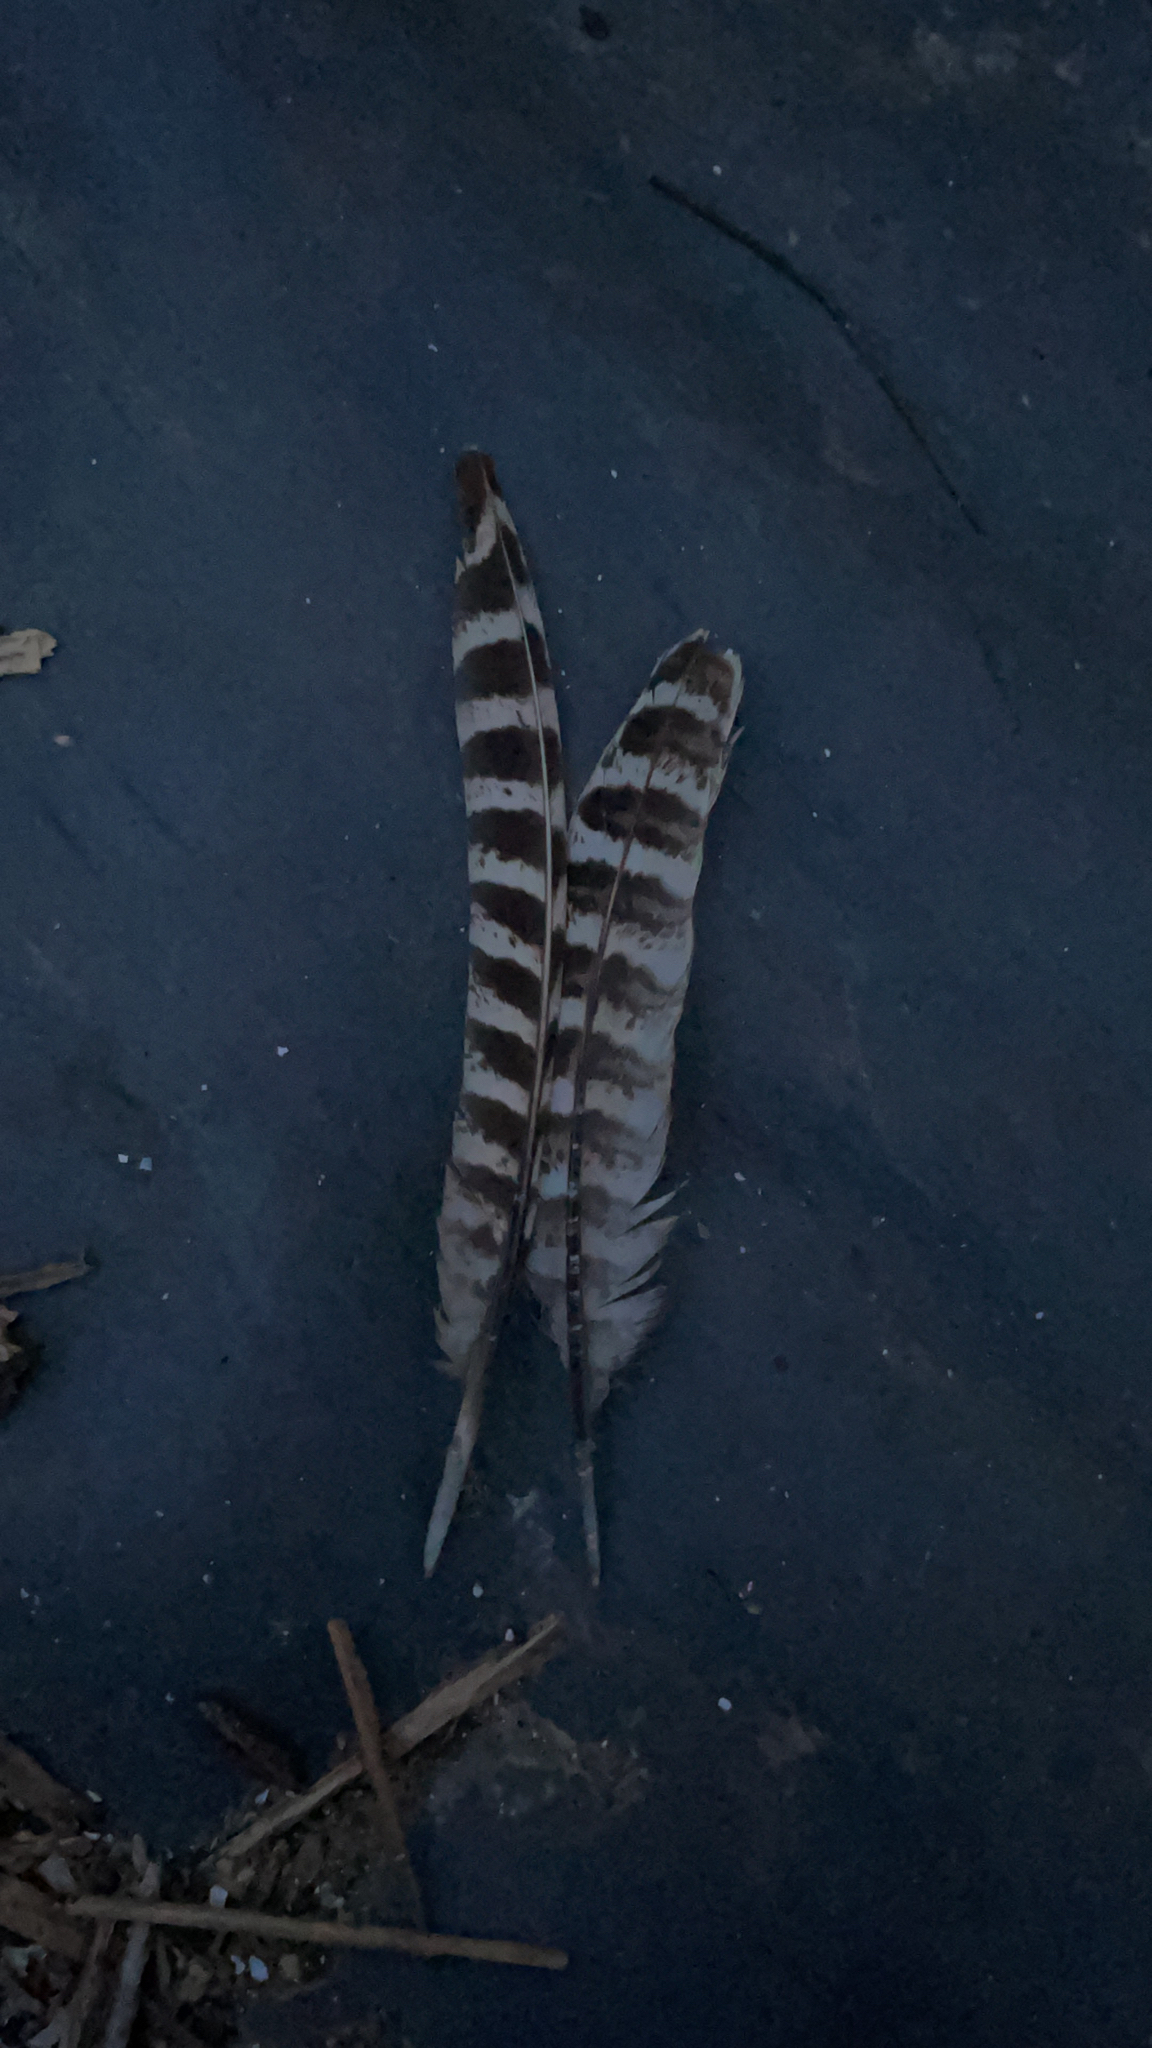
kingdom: Animalia
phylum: Chordata
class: Aves
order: Galliformes
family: Phasianidae
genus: Phasianus
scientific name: Phasianus colchicus
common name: Common pheasant
